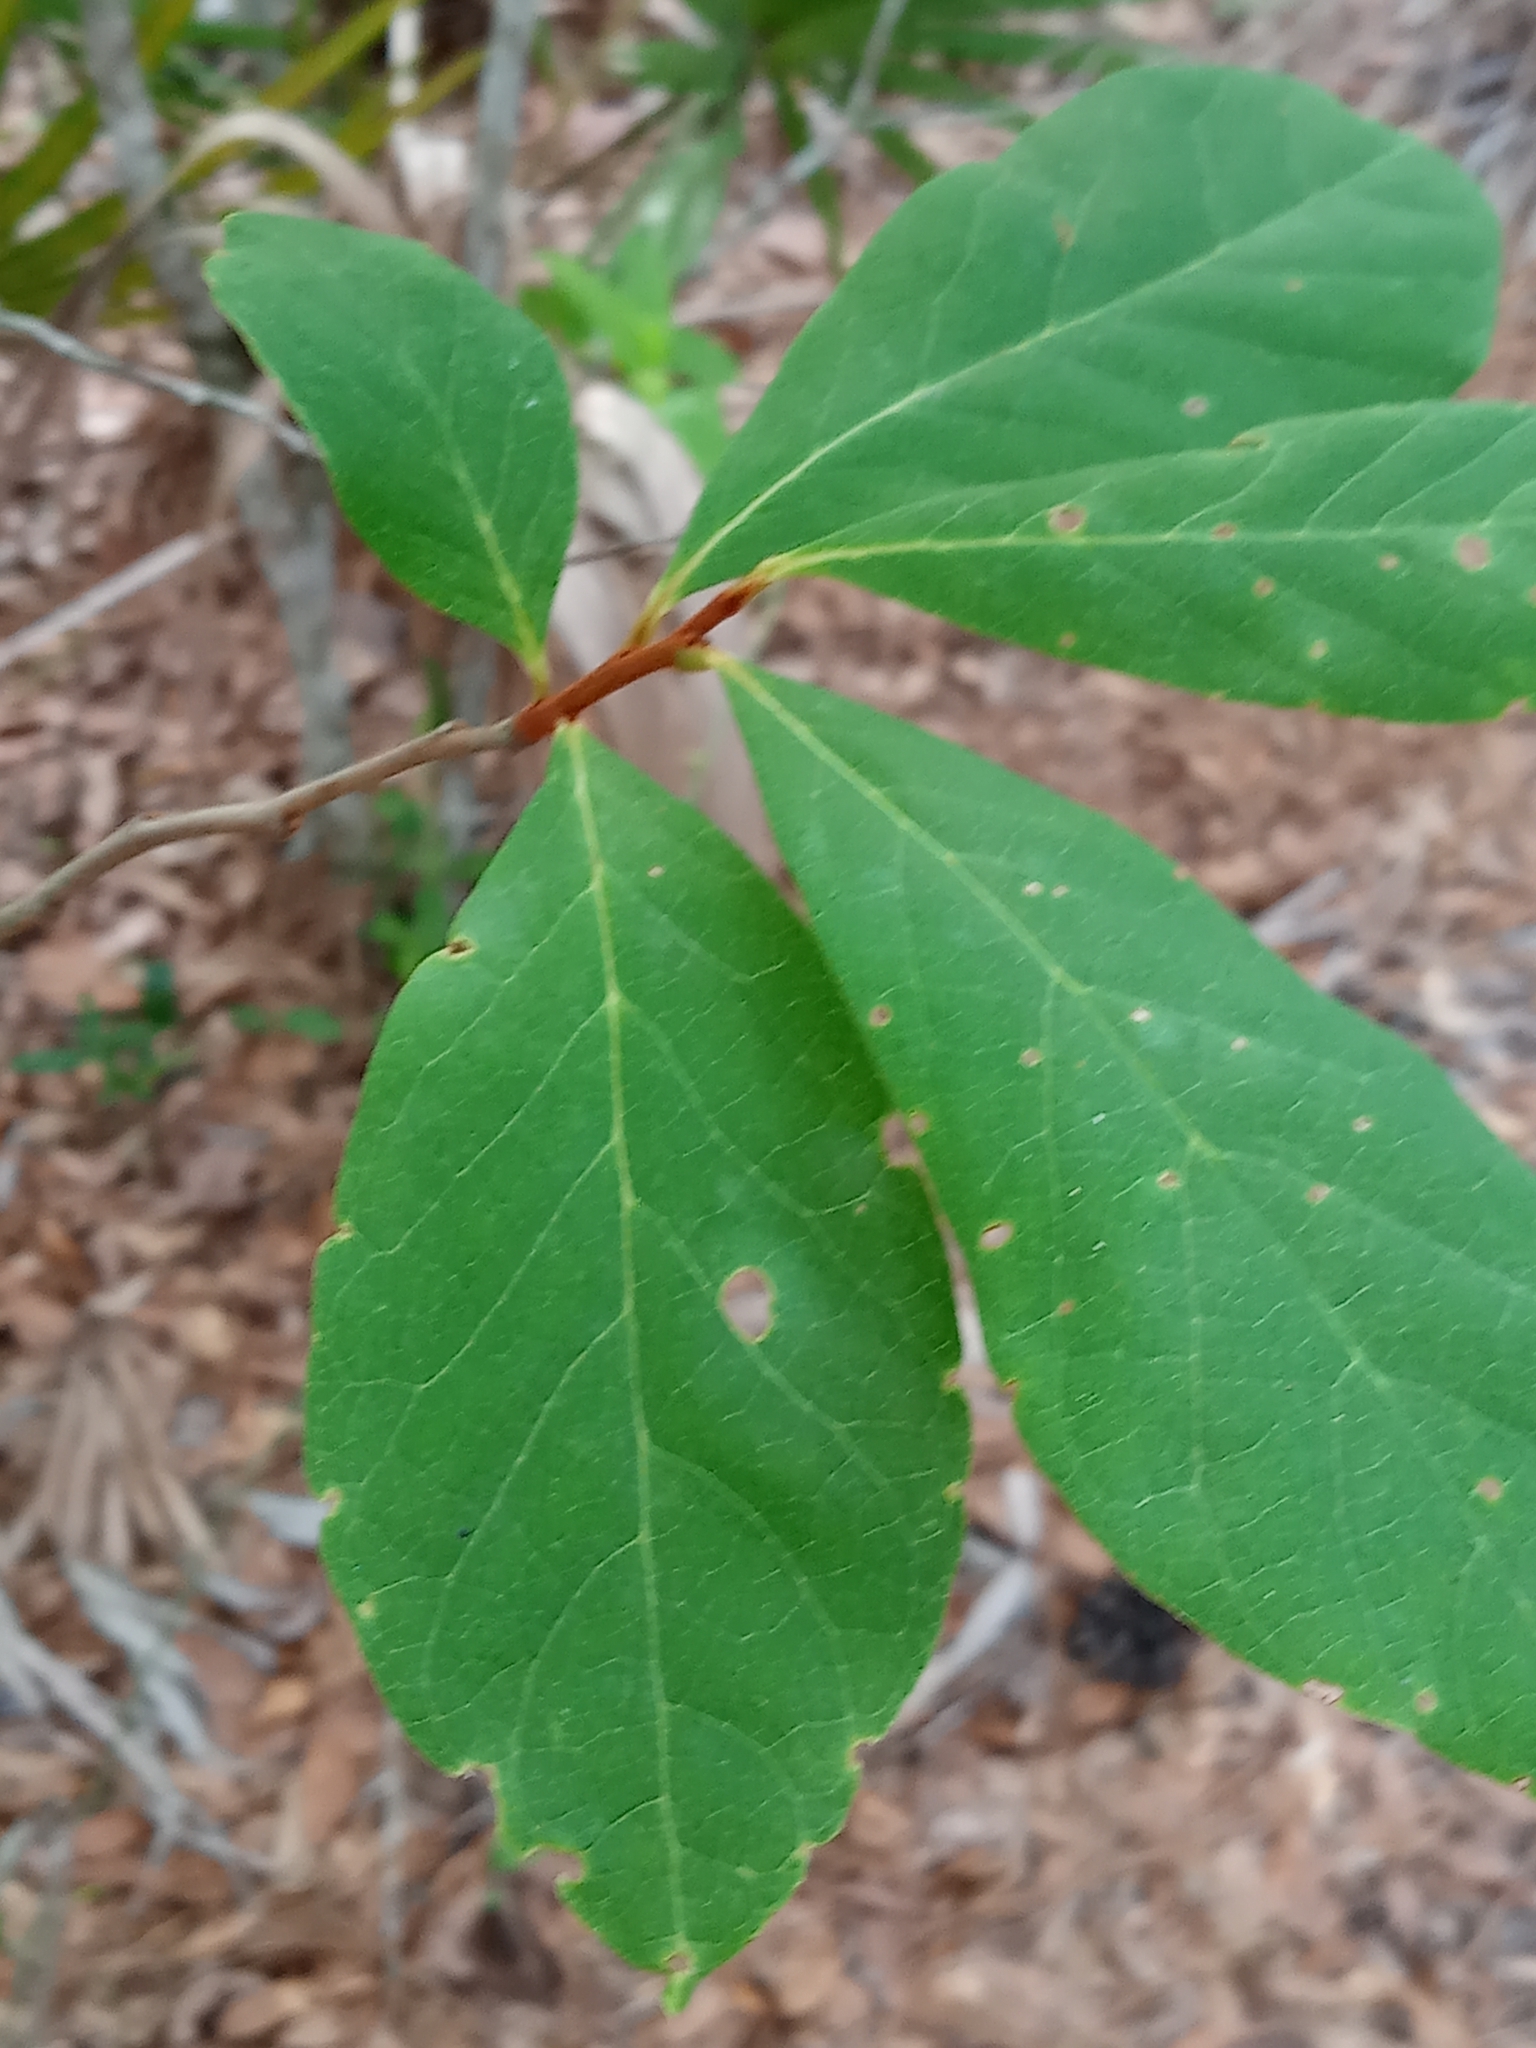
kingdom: Plantae
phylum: Tracheophyta
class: Magnoliopsida
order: Magnoliales
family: Annonaceae
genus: Asimina
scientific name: Asimina parviflora
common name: Dwarf pawpaw
